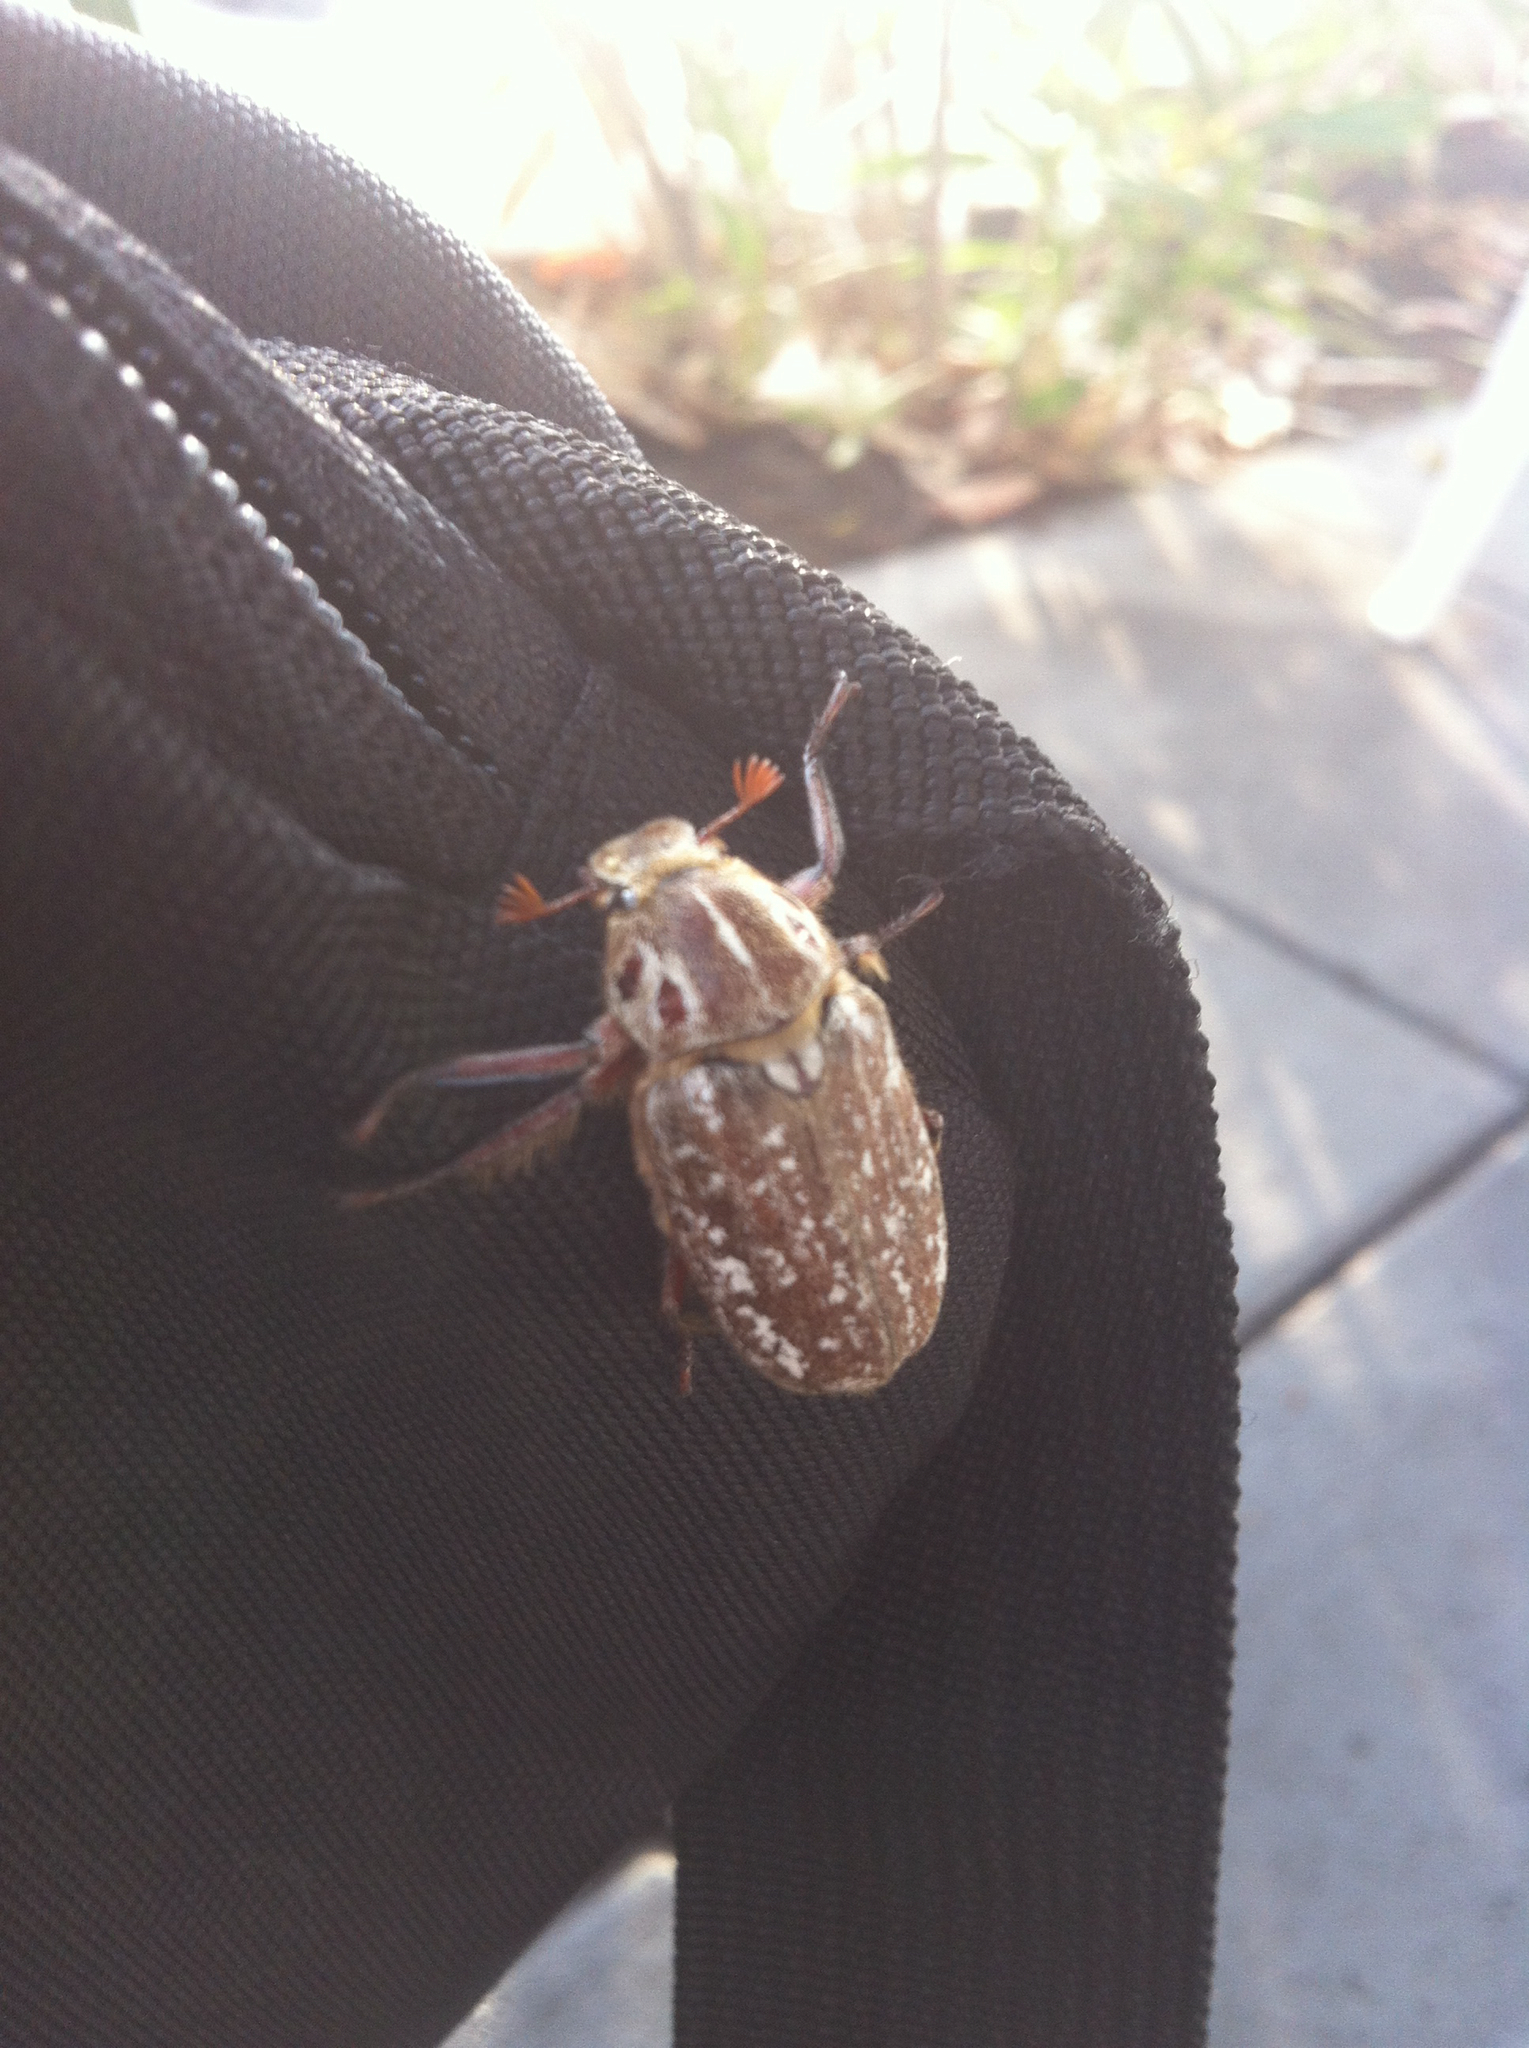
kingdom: Animalia
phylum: Arthropoda
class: Insecta
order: Coleoptera
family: Scarabaeidae
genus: Anoxia
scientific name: Anoxia orientalis
